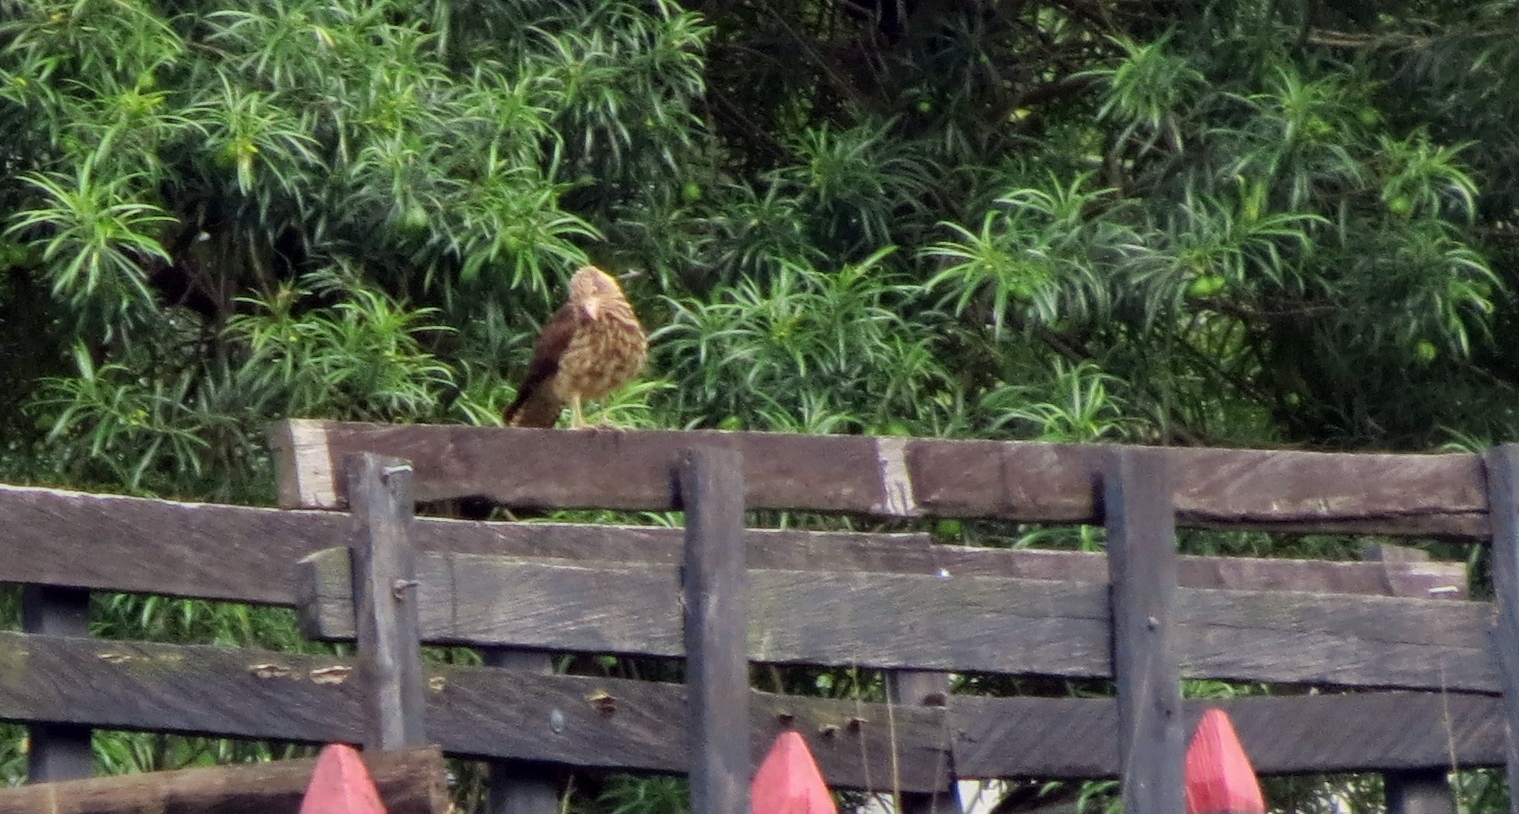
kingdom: Animalia
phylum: Chordata
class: Aves
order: Falconiformes
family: Falconidae
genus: Daptrius
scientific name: Daptrius
